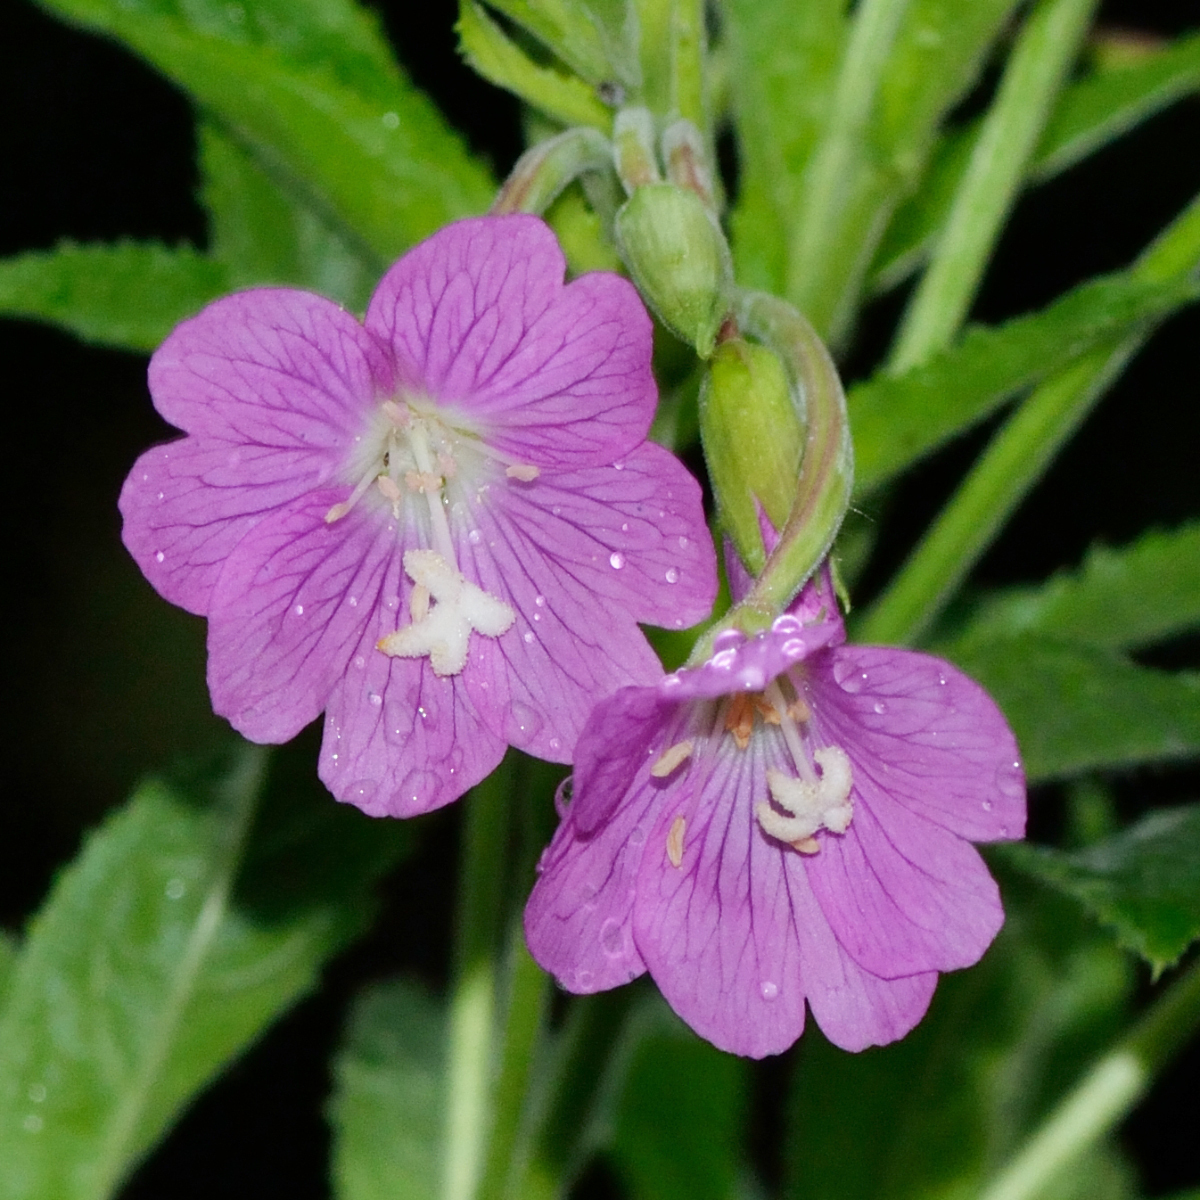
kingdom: Plantae
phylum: Tracheophyta
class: Magnoliopsida
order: Myrtales
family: Onagraceae
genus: Epilobium
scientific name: Epilobium hirsutum
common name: Great willowherb
